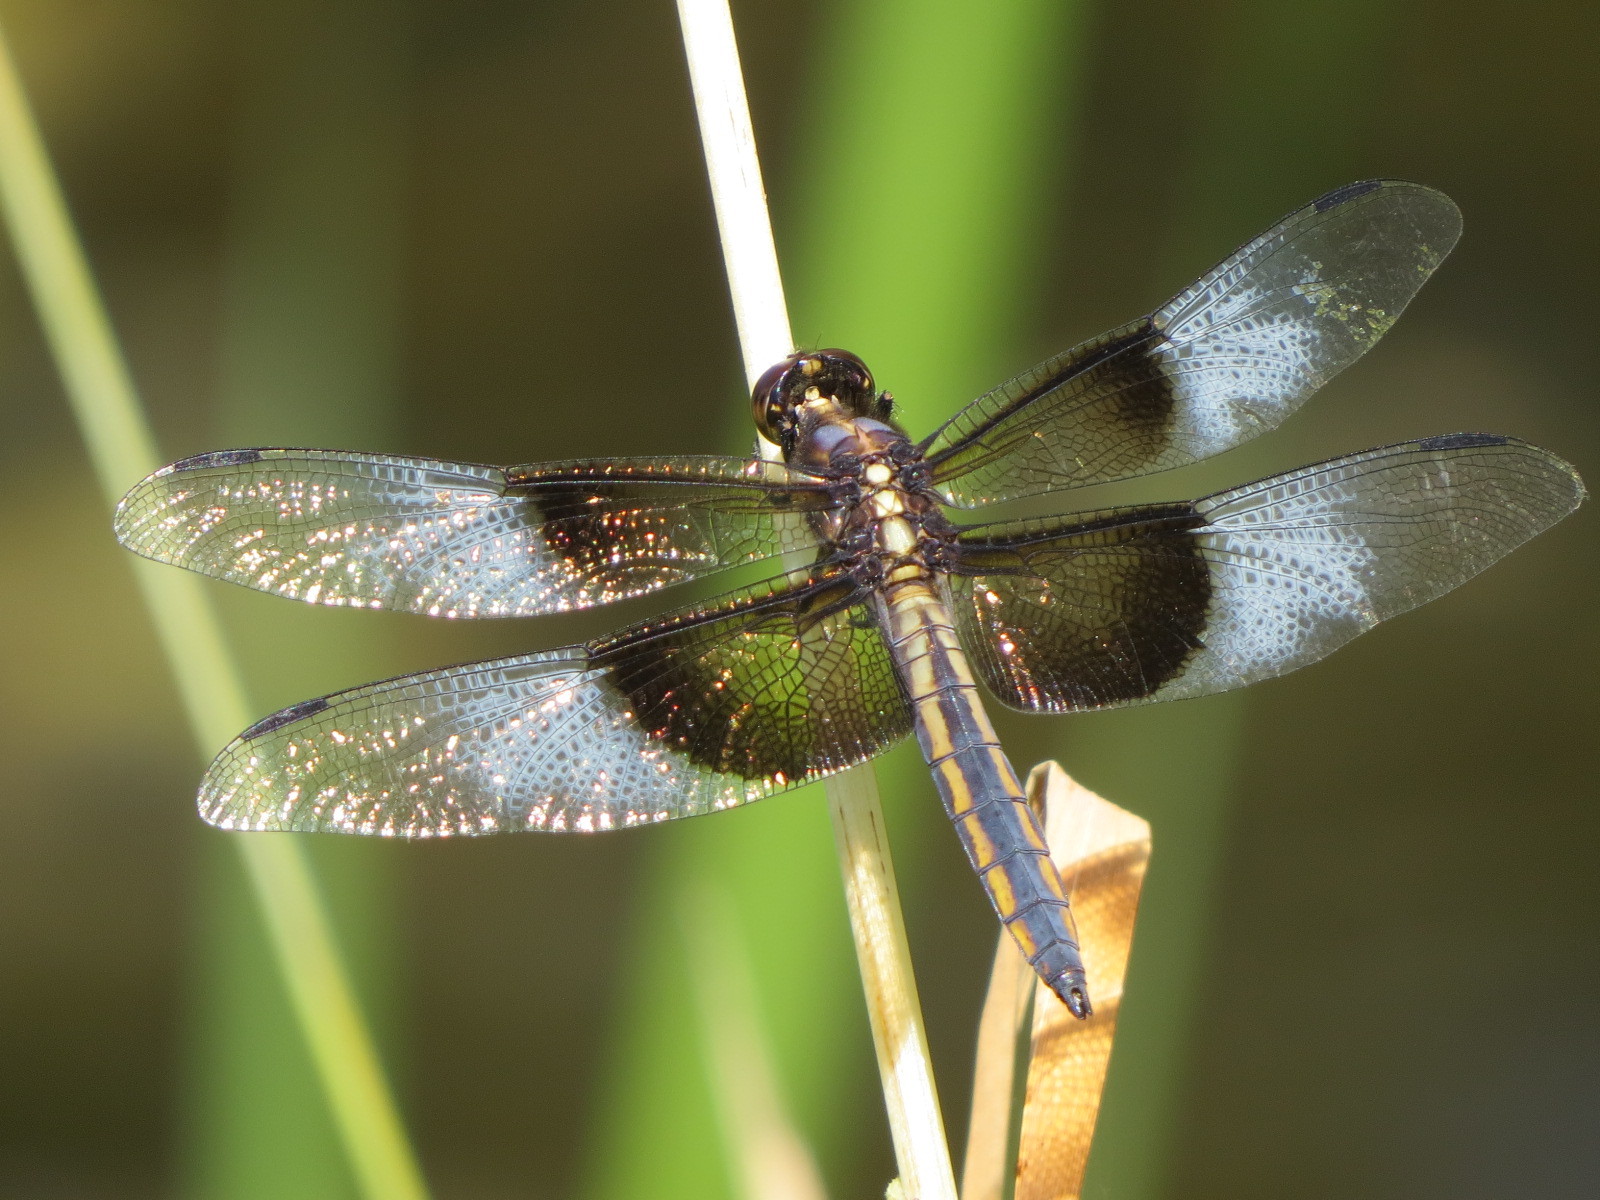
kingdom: Animalia
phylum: Arthropoda
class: Insecta
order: Odonata
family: Libellulidae
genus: Libellula
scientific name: Libellula luctuosa
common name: Widow skimmer
